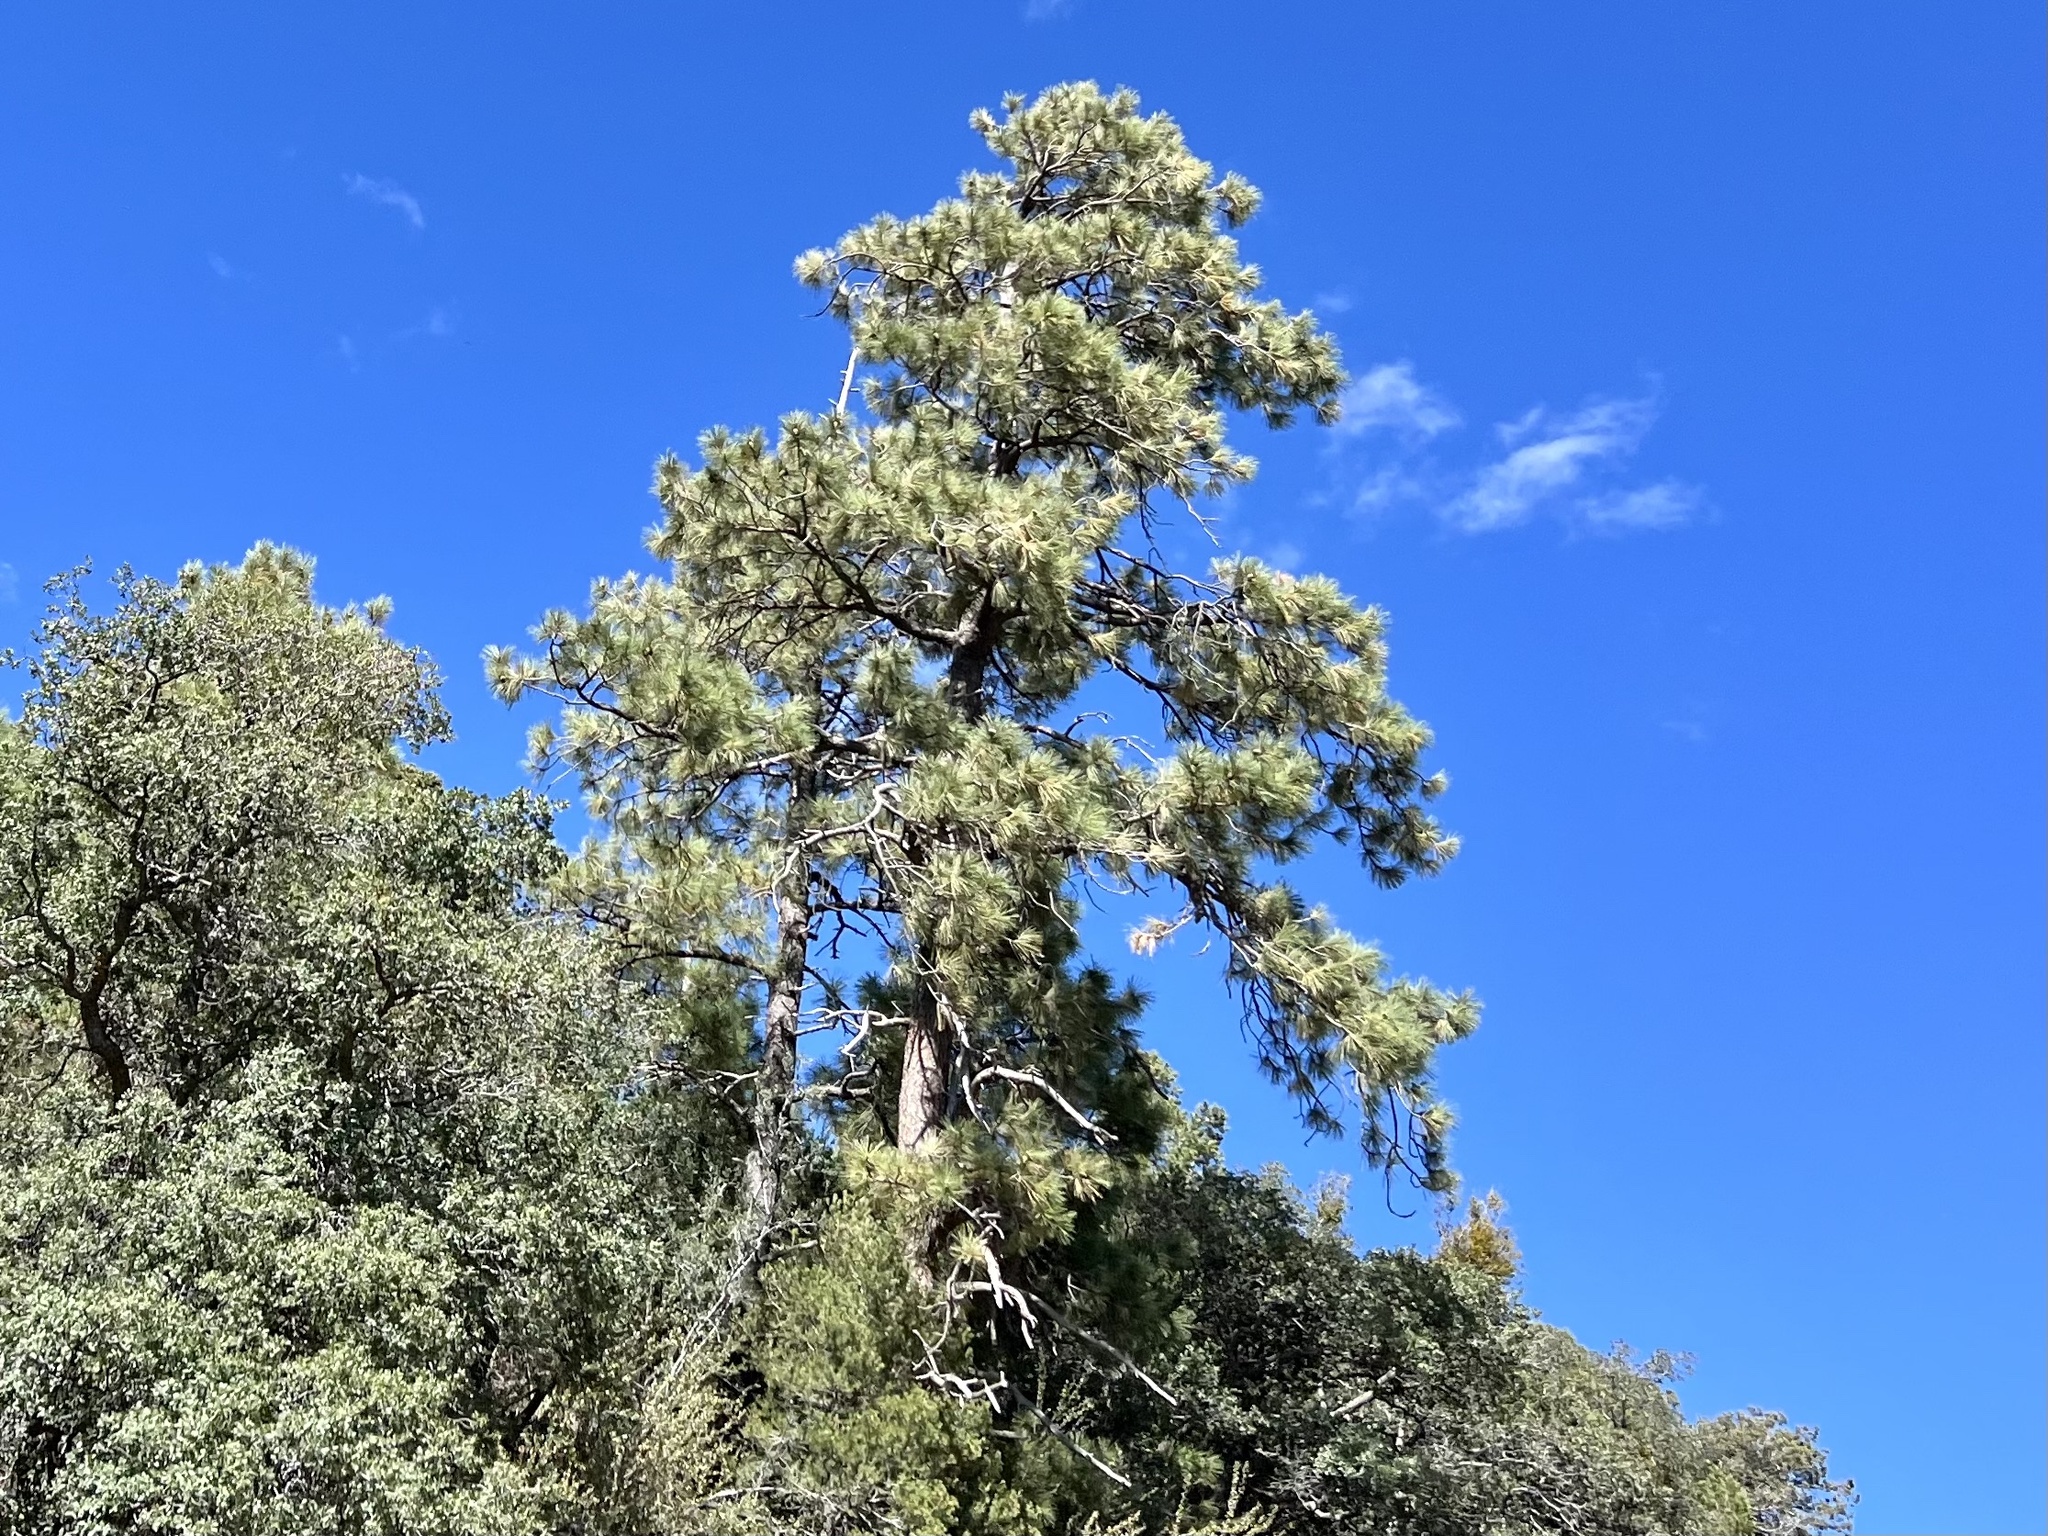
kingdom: Plantae
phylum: Tracheophyta
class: Pinopsida
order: Pinales
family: Pinaceae
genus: Pinus
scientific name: Pinus ponderosa
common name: Western yellow-pine
